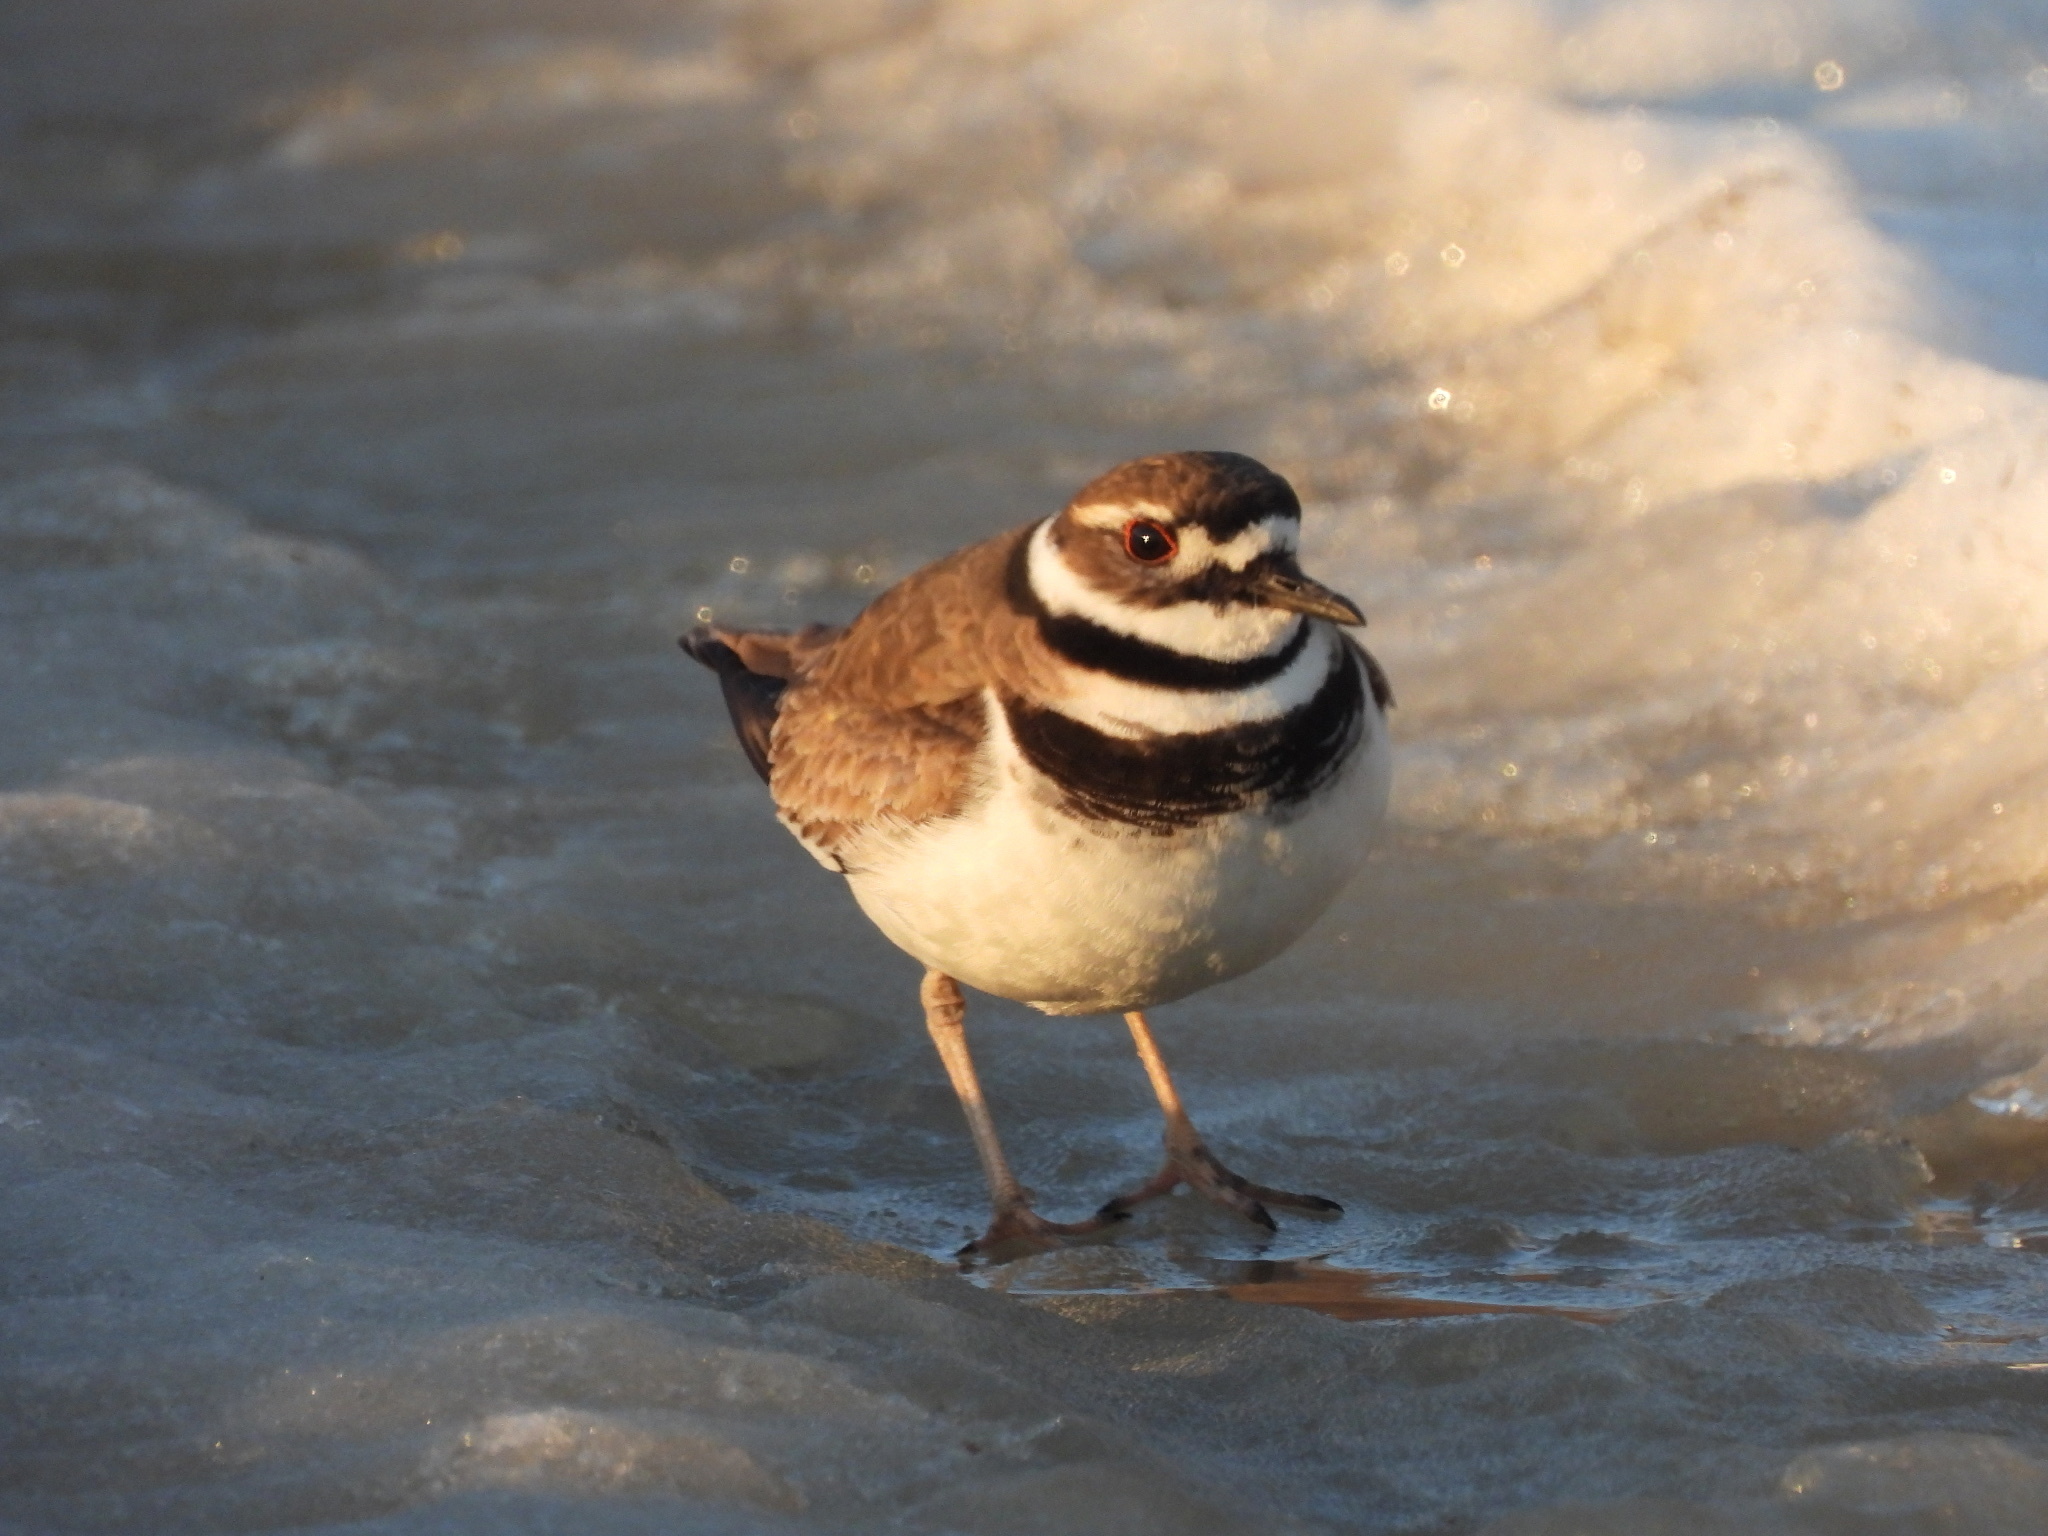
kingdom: Animalia
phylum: Chordata
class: Aves
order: Charadriiformes
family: Charadriidae
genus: Charadrius
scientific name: Charadrius vociferus
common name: Killdeer
